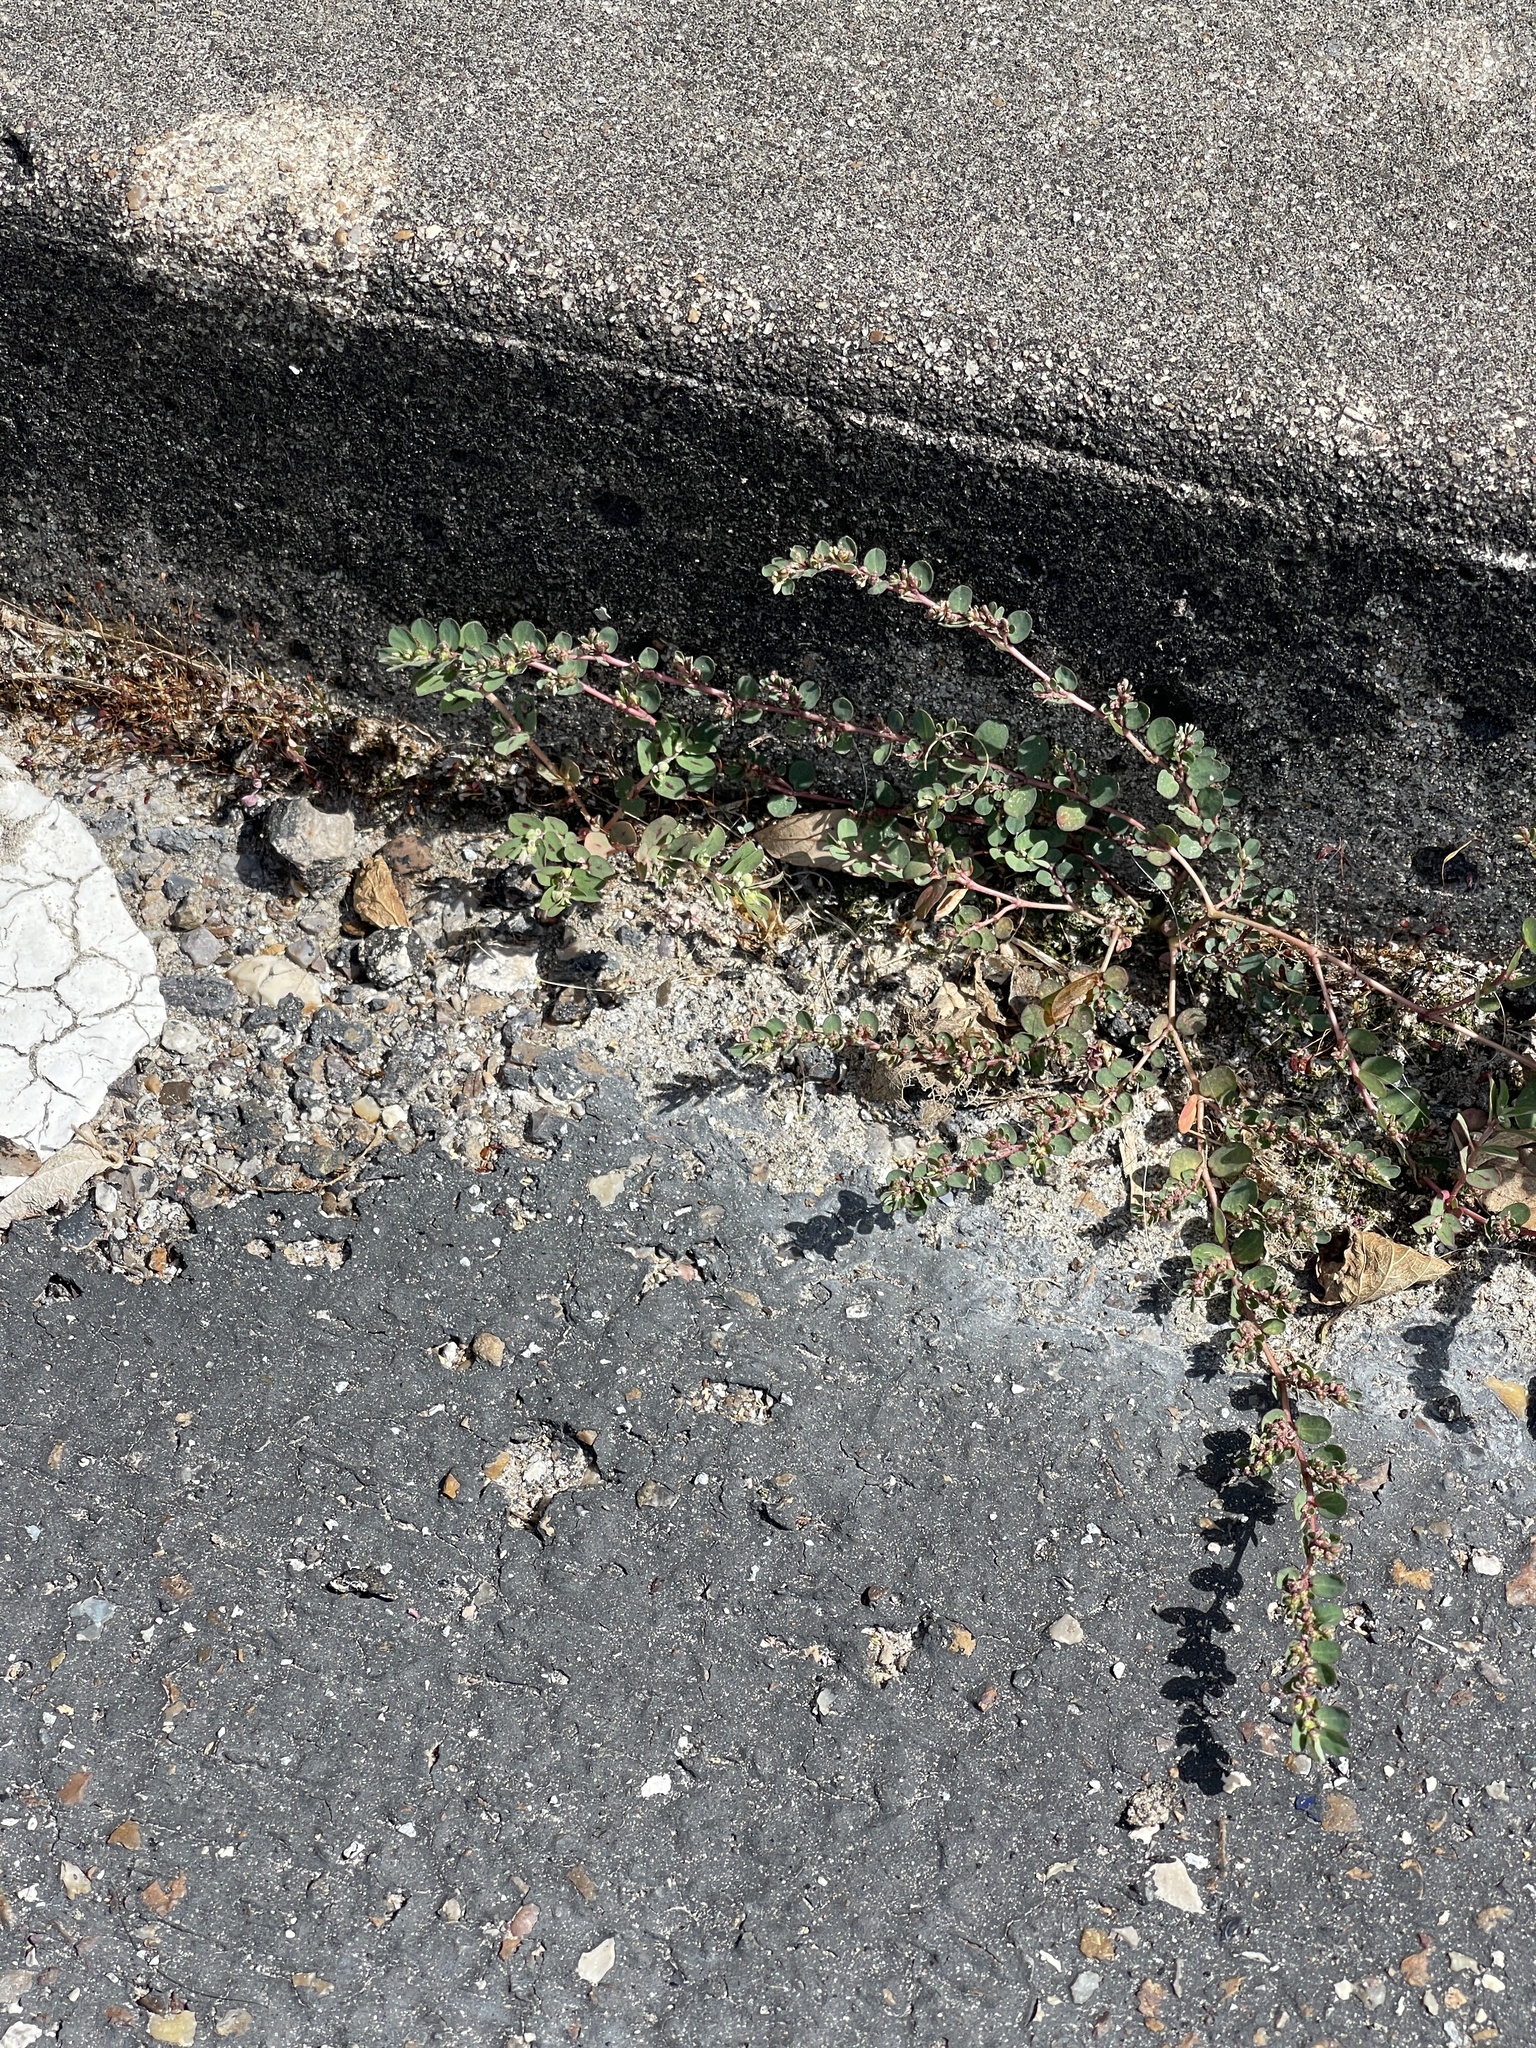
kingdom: Plantae
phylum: Tracheophyta
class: Magnoliopsida
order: Malpighiales
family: Euphorbiaceae
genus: Euphorbia
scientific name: Euphorbia prostrata
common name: Prostrate sandmat
